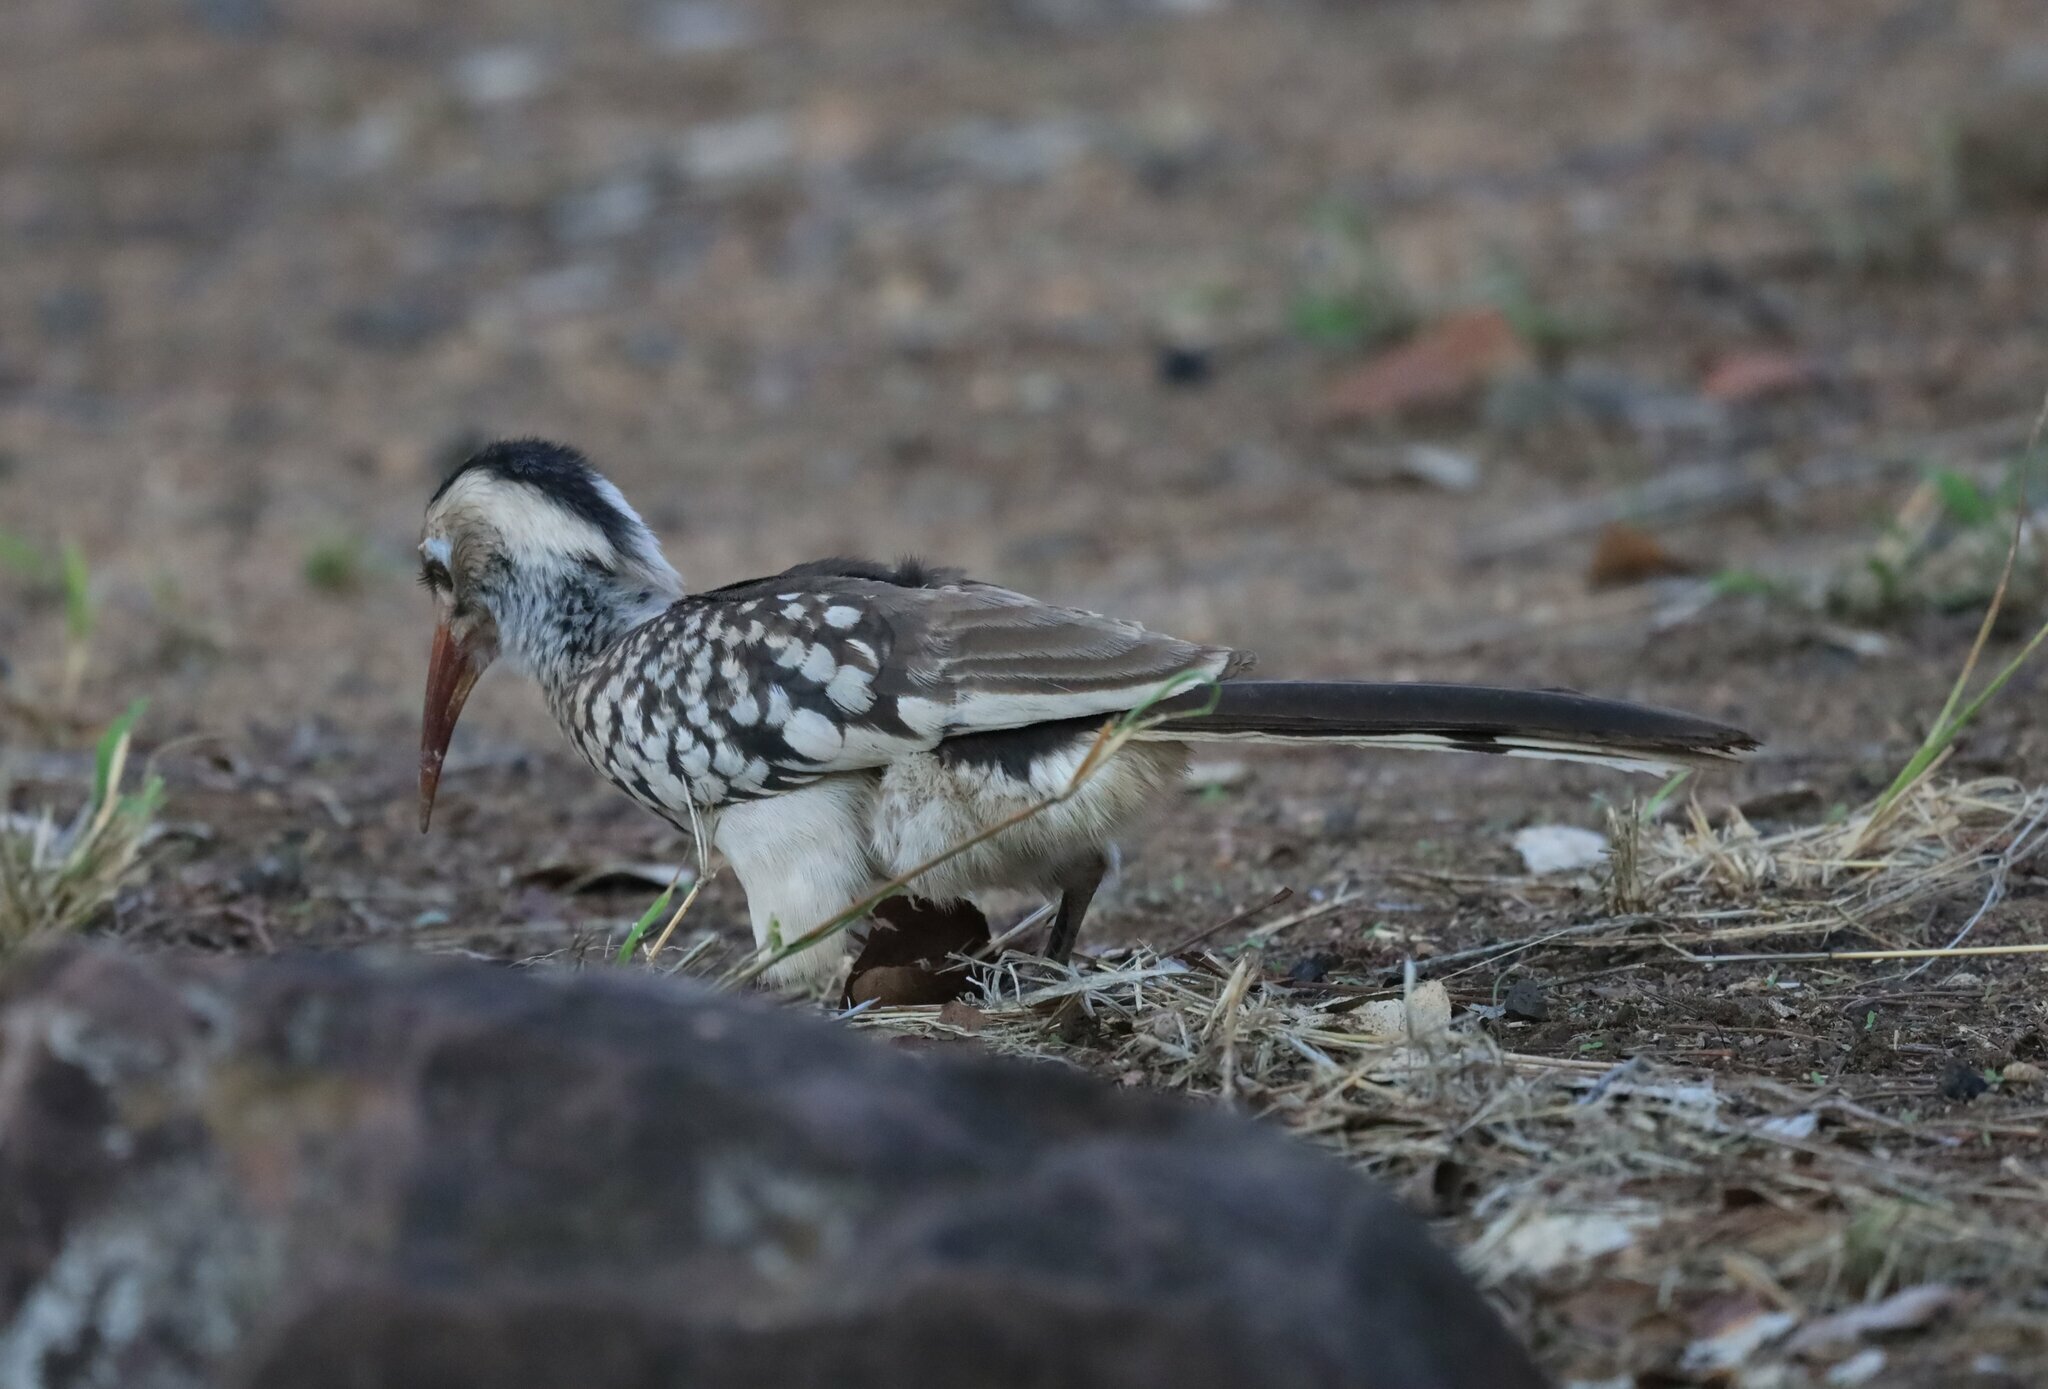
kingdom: Animalia
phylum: Chordata
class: Aves
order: Bucerotiformes
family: Bucerotidae
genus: Tockus
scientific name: Tockus rufirostris
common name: Southern red-billed hornbill
